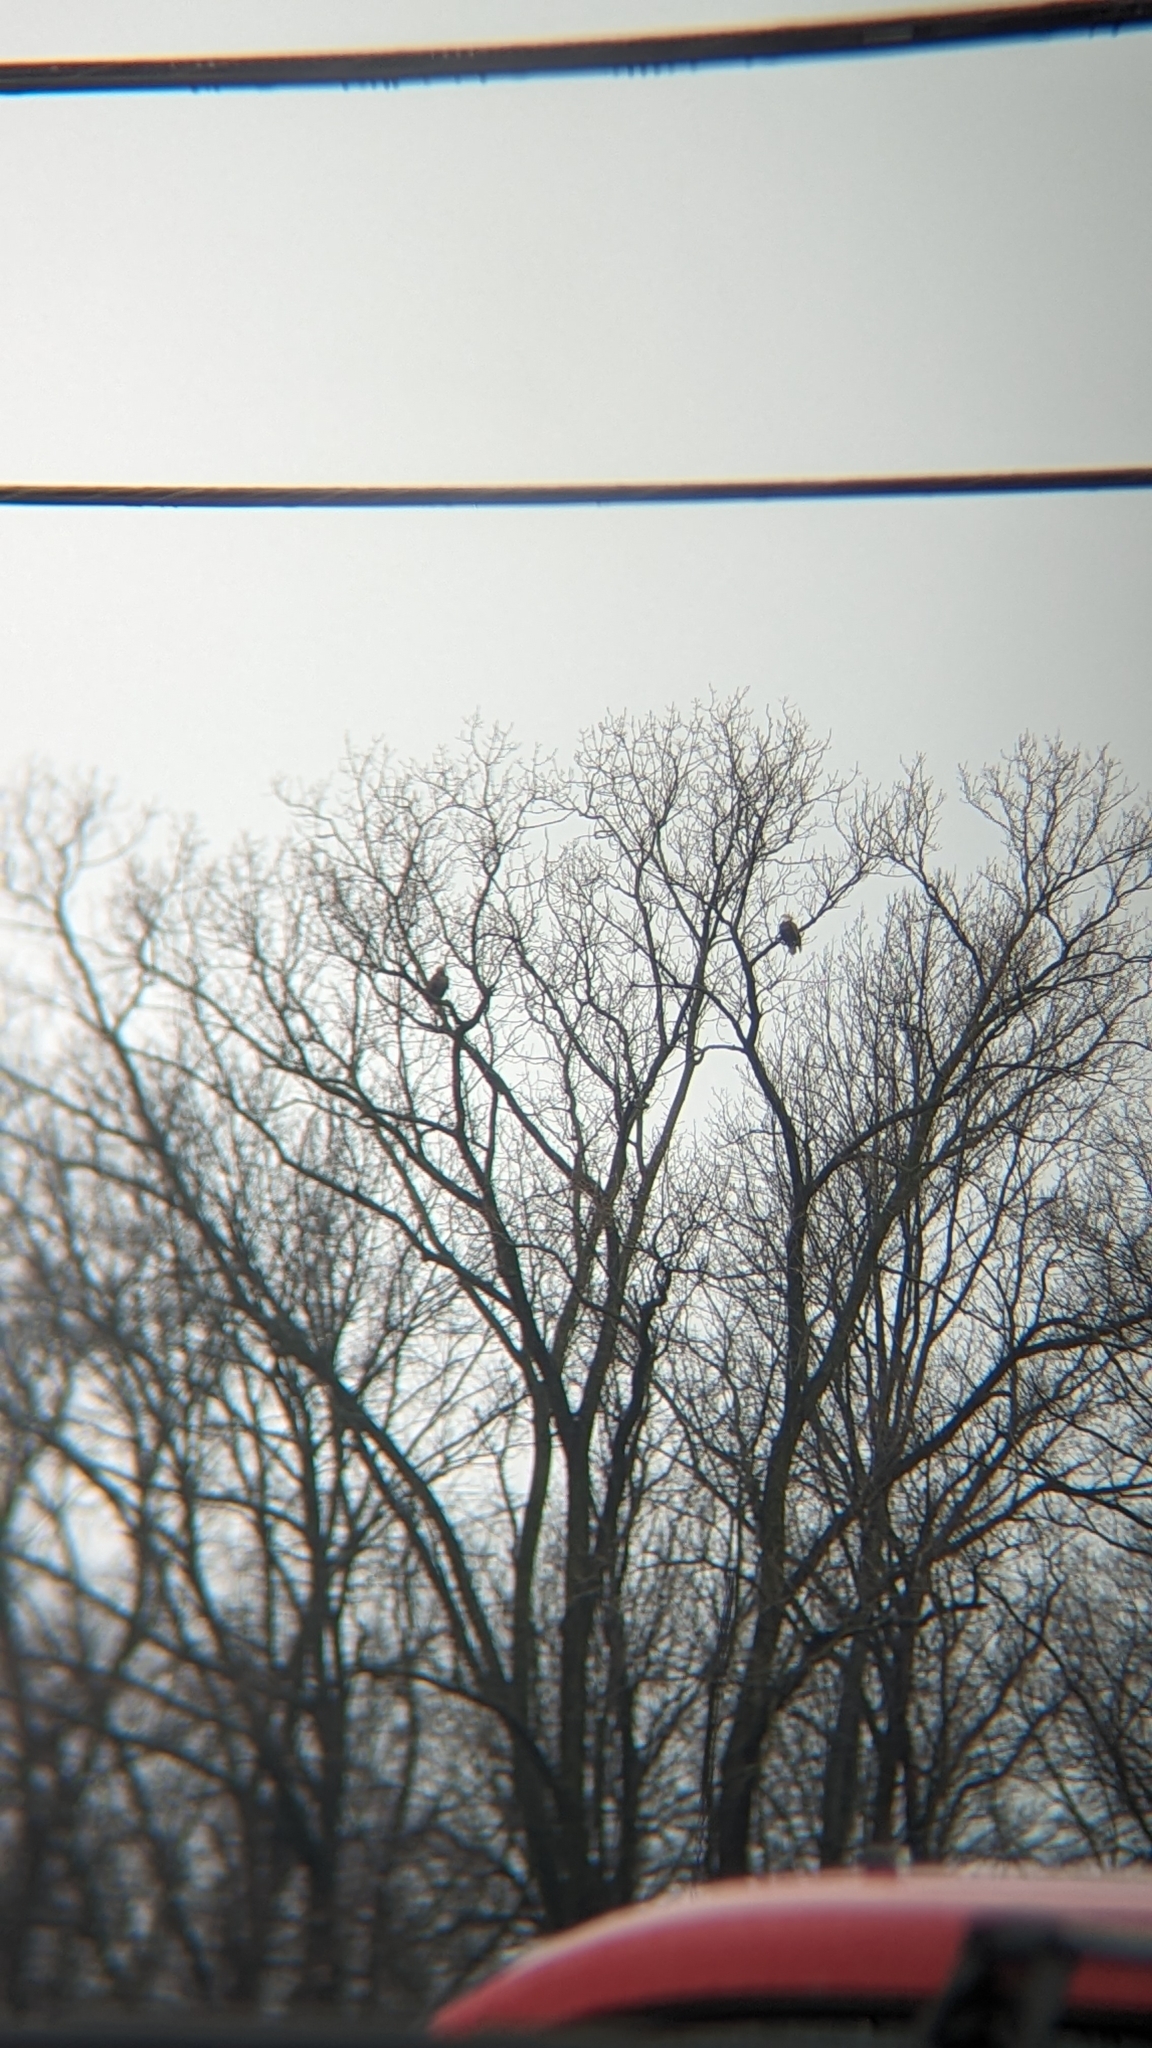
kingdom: Animalia
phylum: Chordata
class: Aves
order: Accipitriformes
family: Accipitridae
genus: Haliaeetus
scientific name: Haliaeetus leucocephalus
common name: Bald eagle
